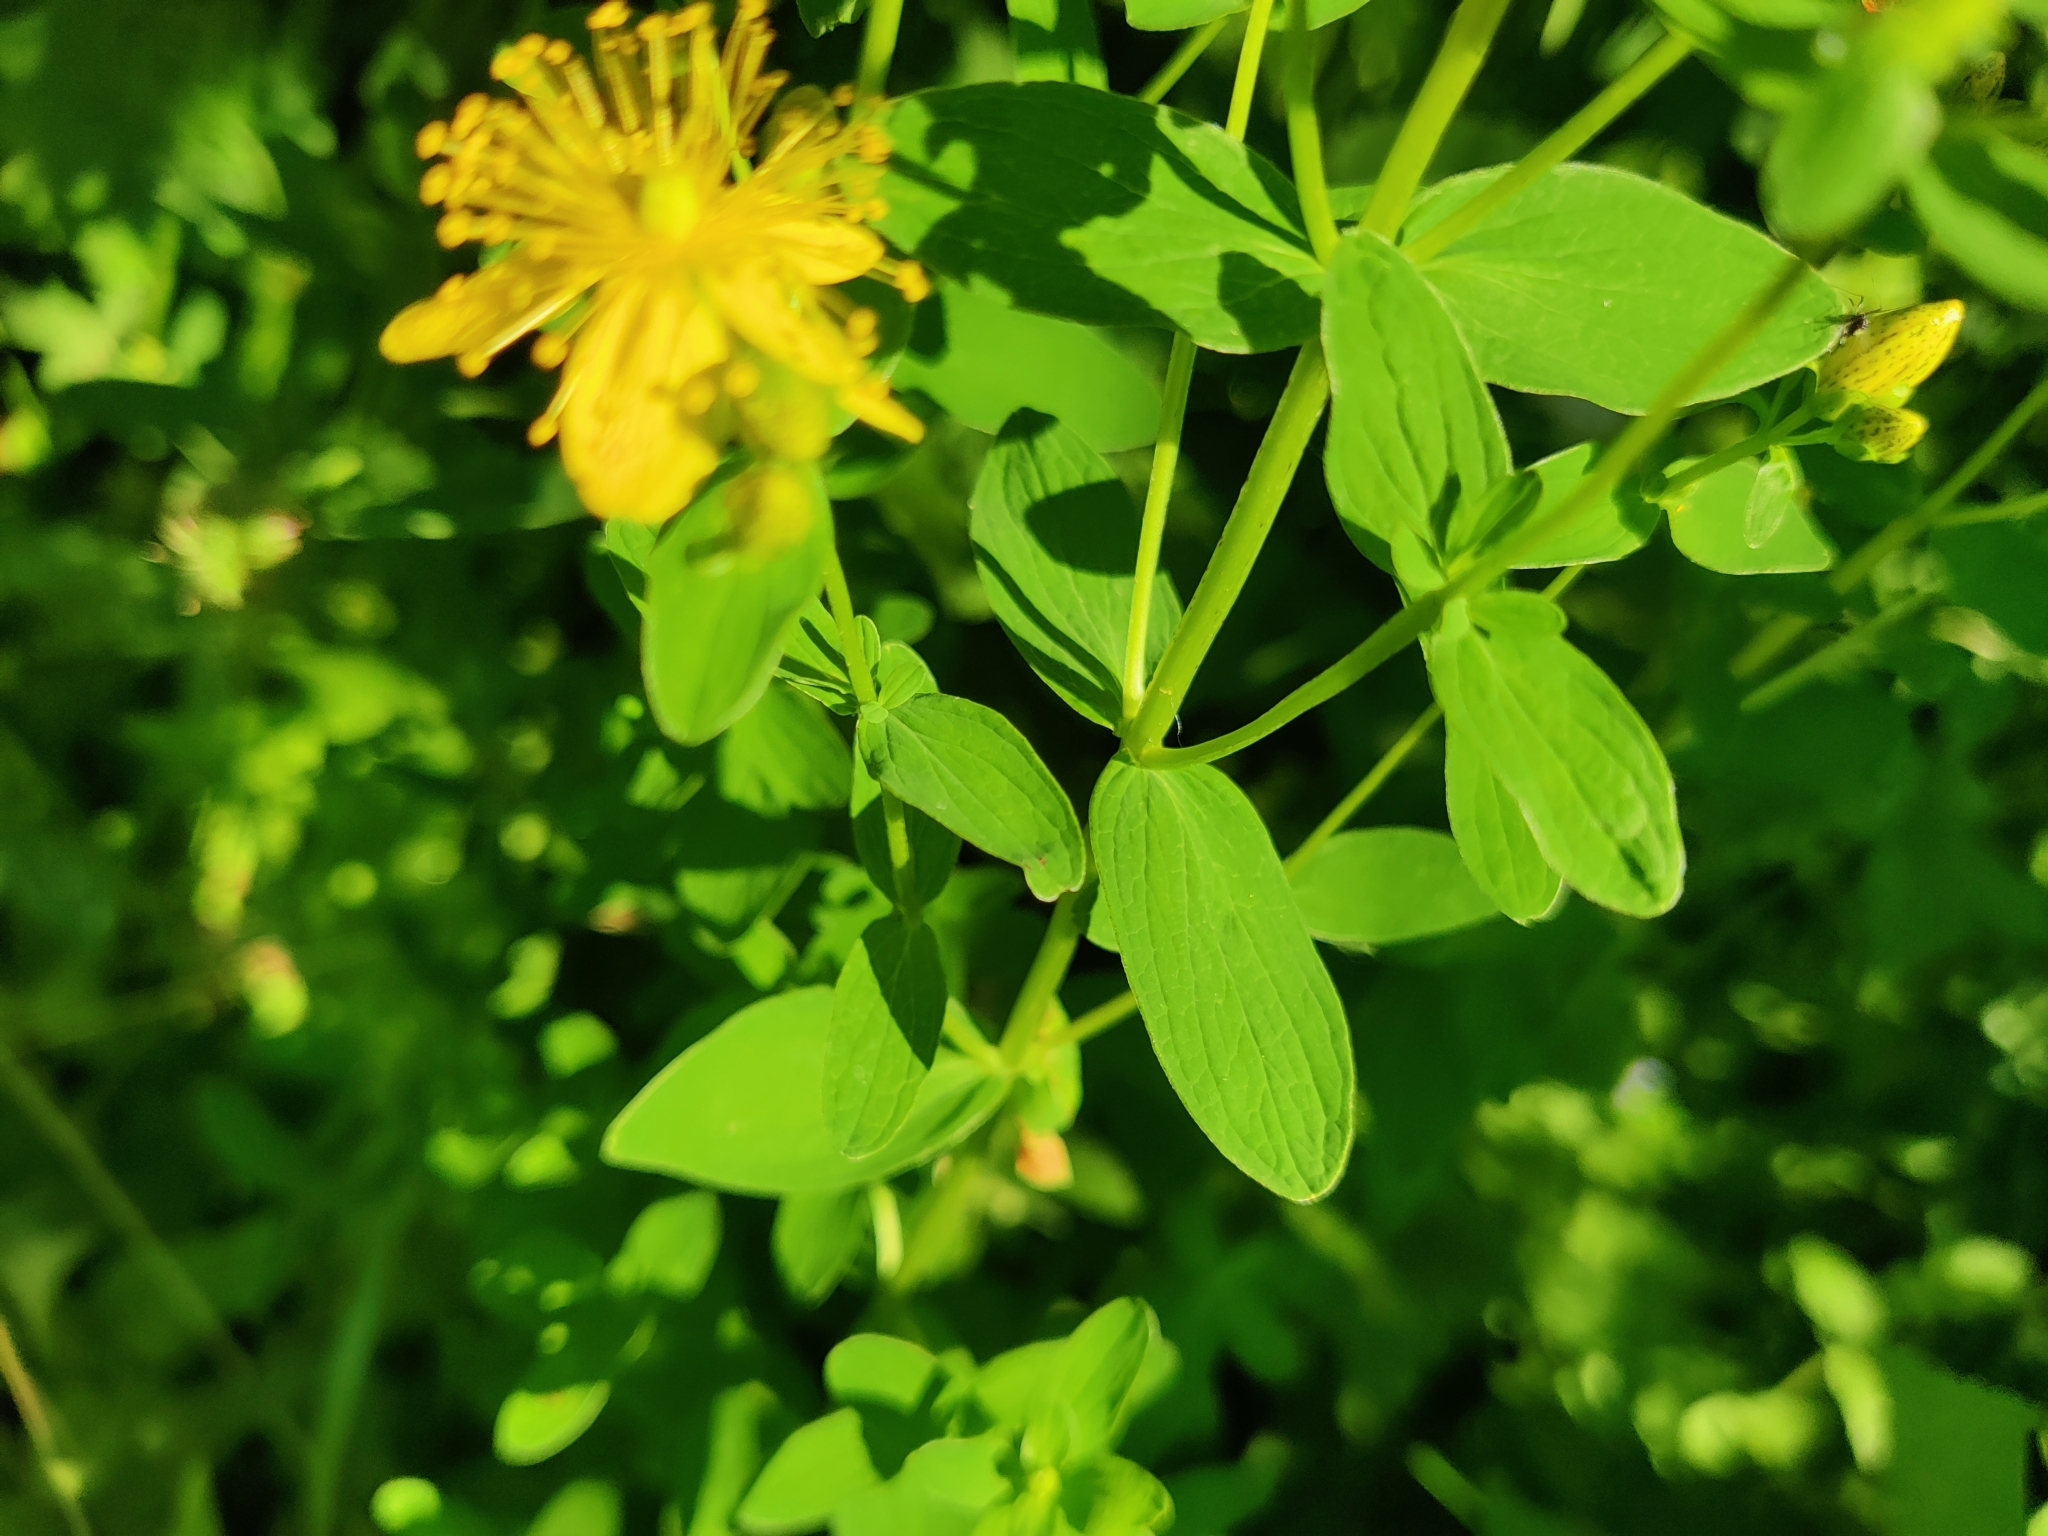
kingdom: Plantae
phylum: Tracheophyta
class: Magnoliopsida
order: Malpighiales
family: Hypericaceae
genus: Hypericum
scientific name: Hypericum maculatum
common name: Imperforate st. john's-wort
